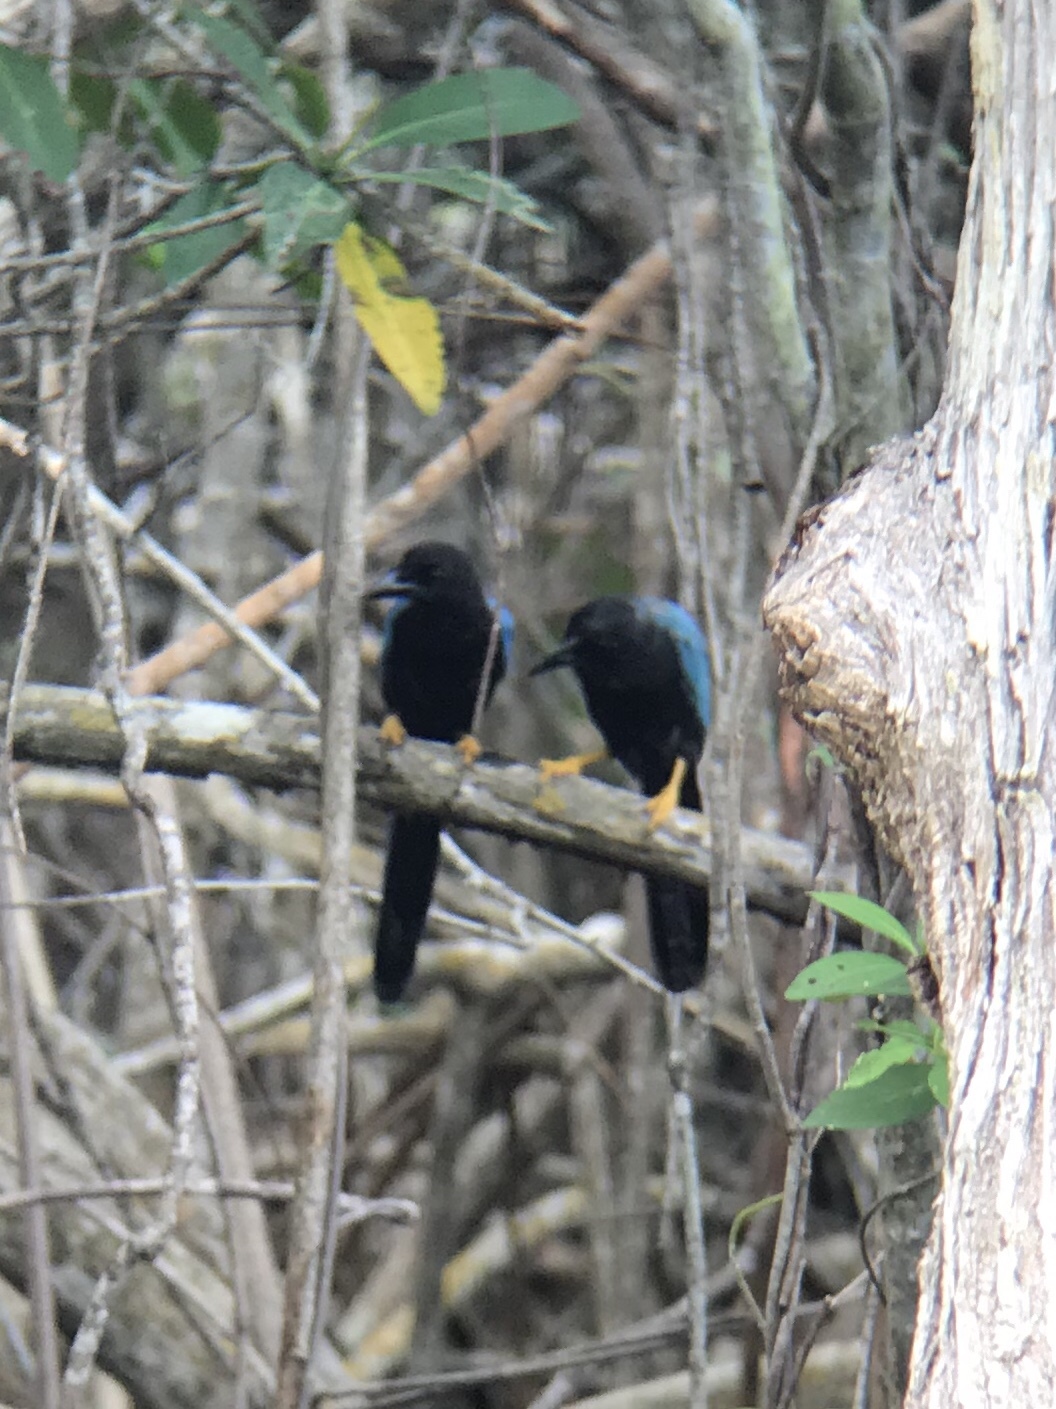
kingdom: Animalia
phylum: Chordata
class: Aves
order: Passeriformes
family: Corvidae
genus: Cyanocorax
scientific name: Cyanocorax yucatanicus
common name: Yucatan jay
